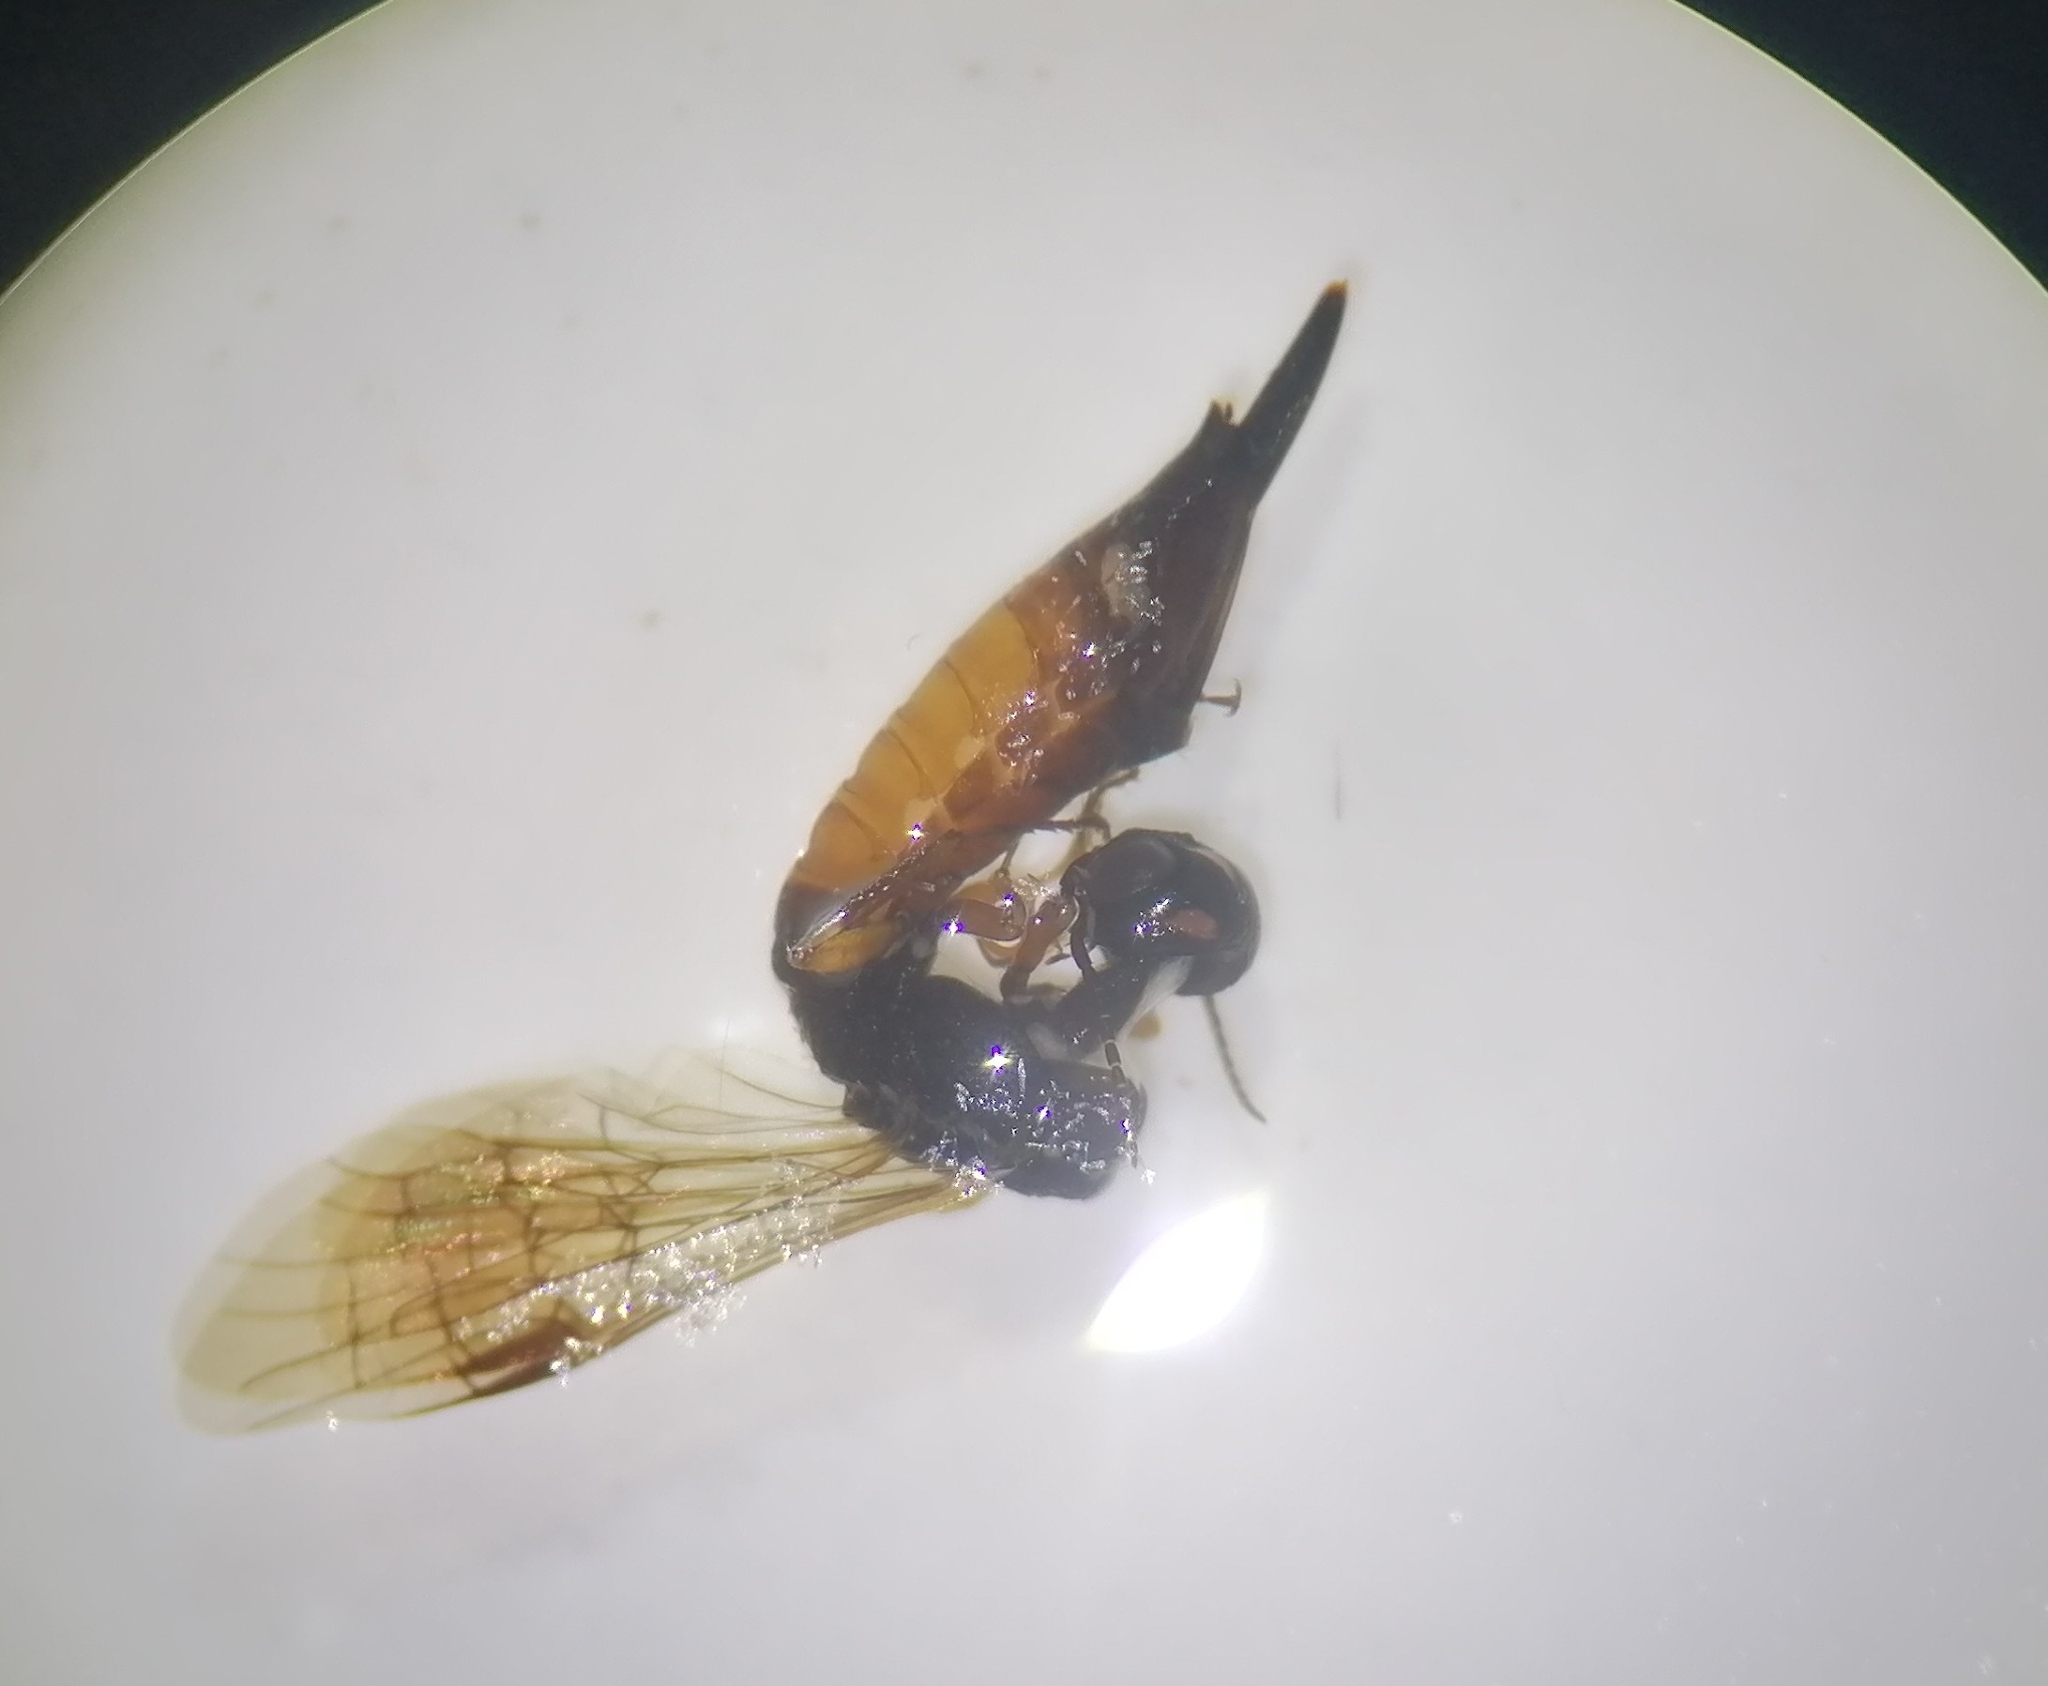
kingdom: Animalia
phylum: Arthropoda
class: Insecta
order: Hymenoptera
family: Xiphydriidae
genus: Xiphydria
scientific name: Xiphydria prolongata
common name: Wasp
